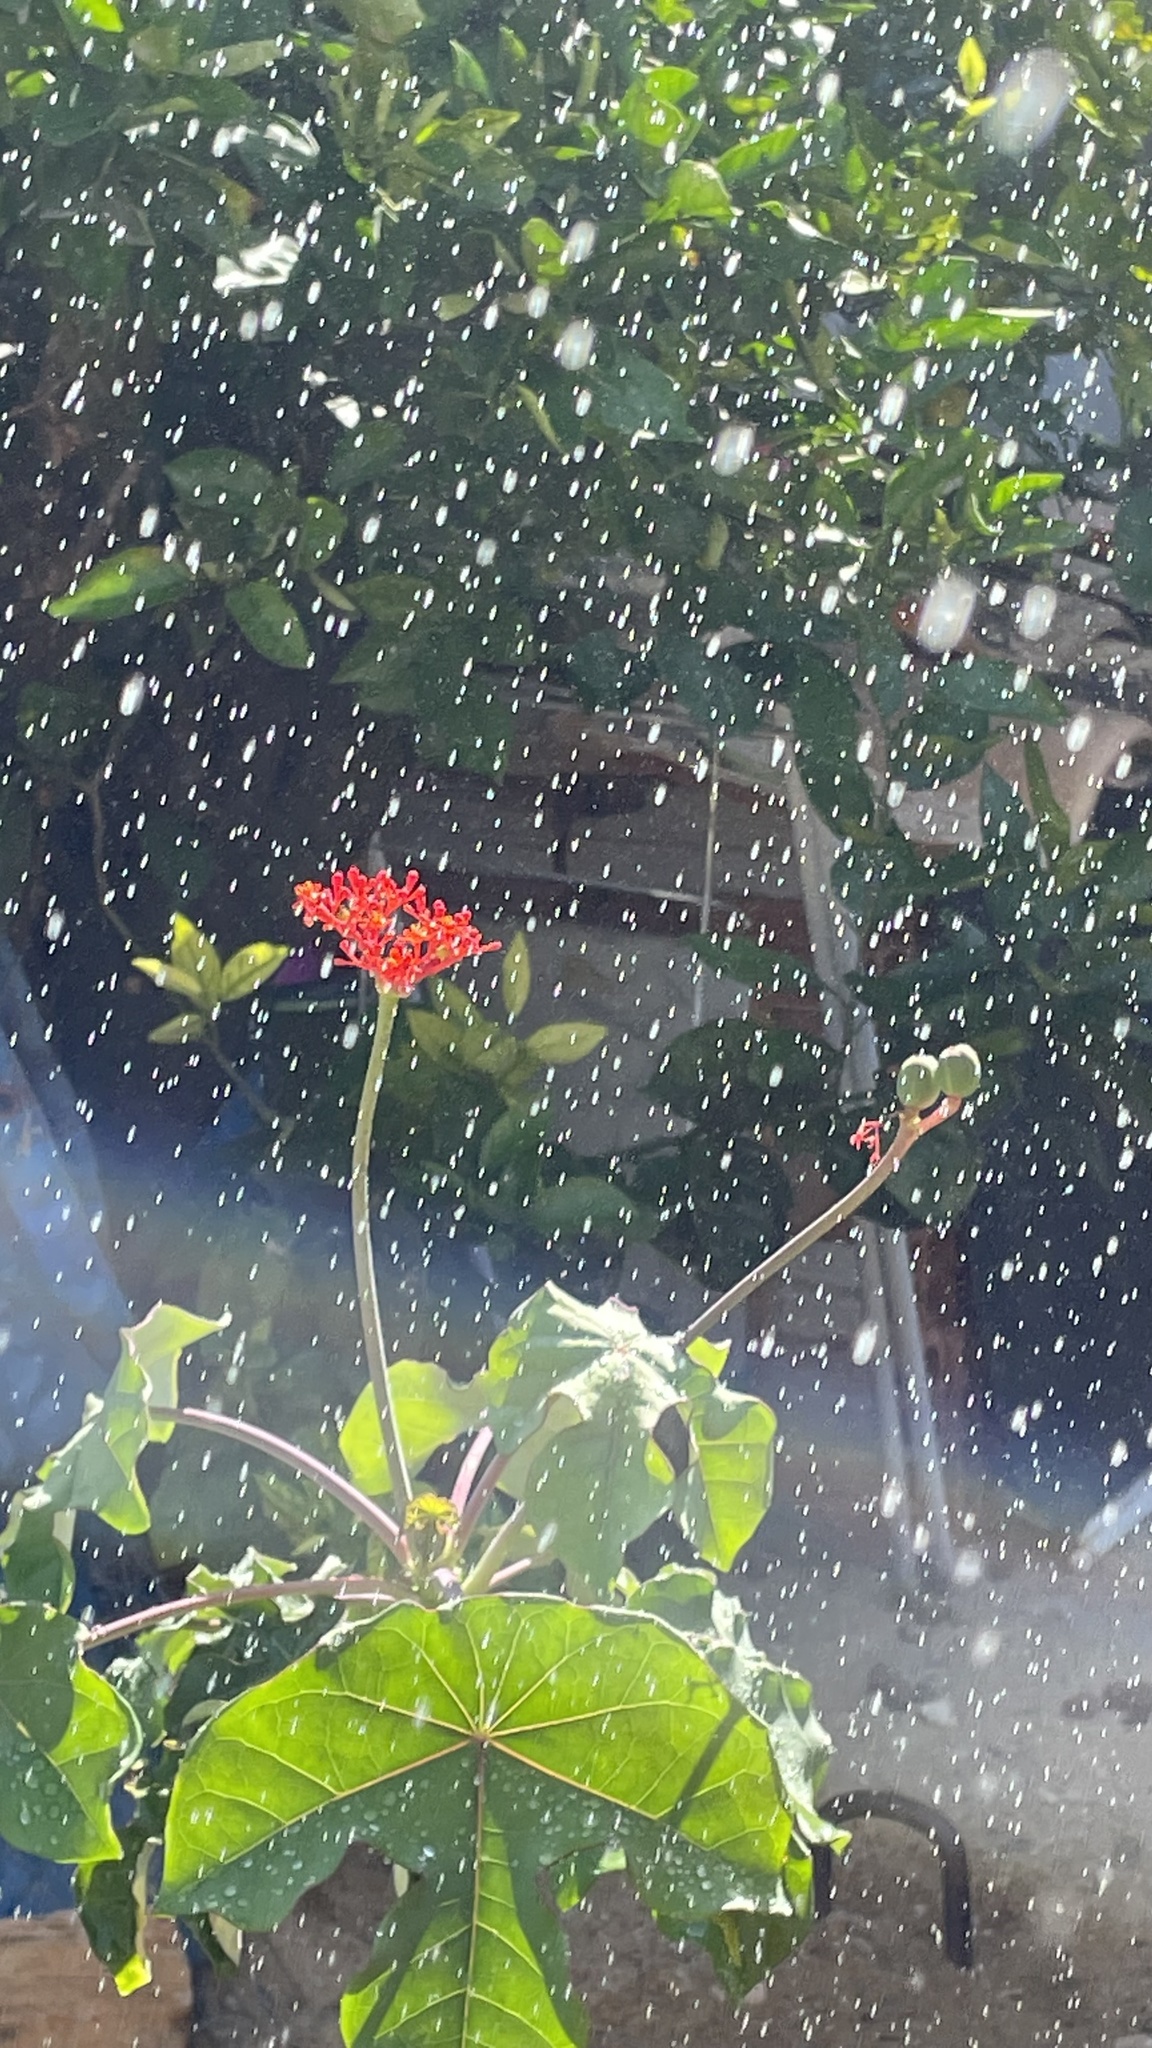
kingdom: Plantae
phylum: Tracheophyta
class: Magnoliopsida
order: Malpighiales
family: Euphorbiaceae
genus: Jatropha
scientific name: Jatropha podagrica
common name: Gout stalk
